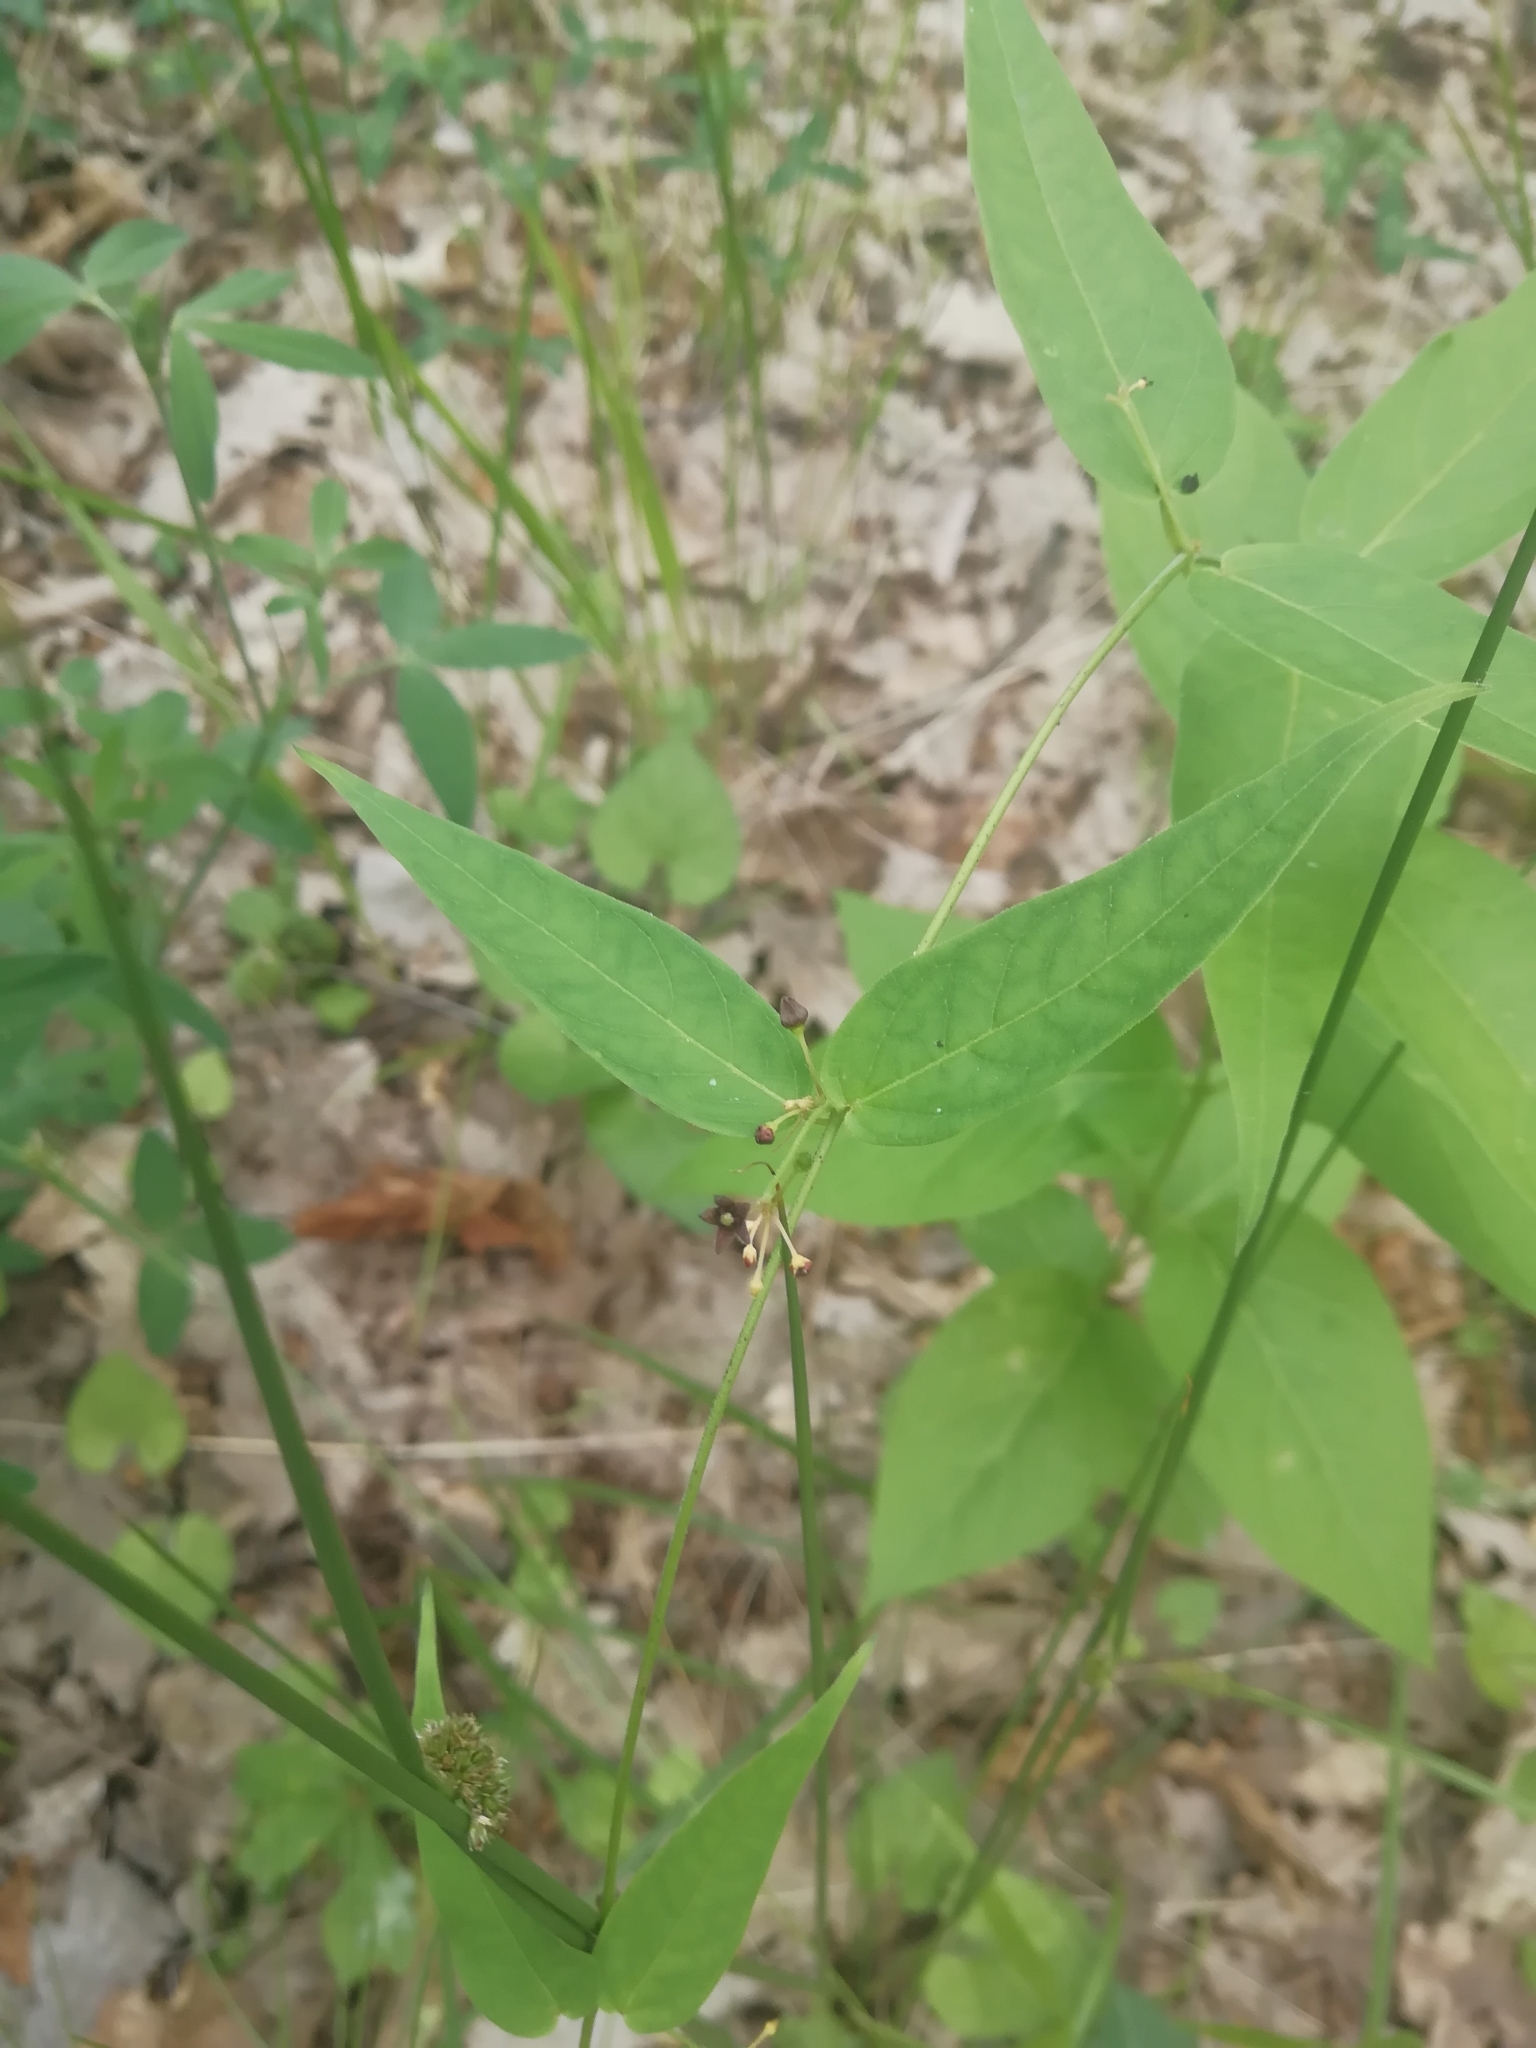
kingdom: Plantae
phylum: Tracheophyta
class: Magnoliopsida
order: Gentianales
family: Apocynaceae
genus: Vincetoxicum
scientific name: Vincetoxicum scandens
